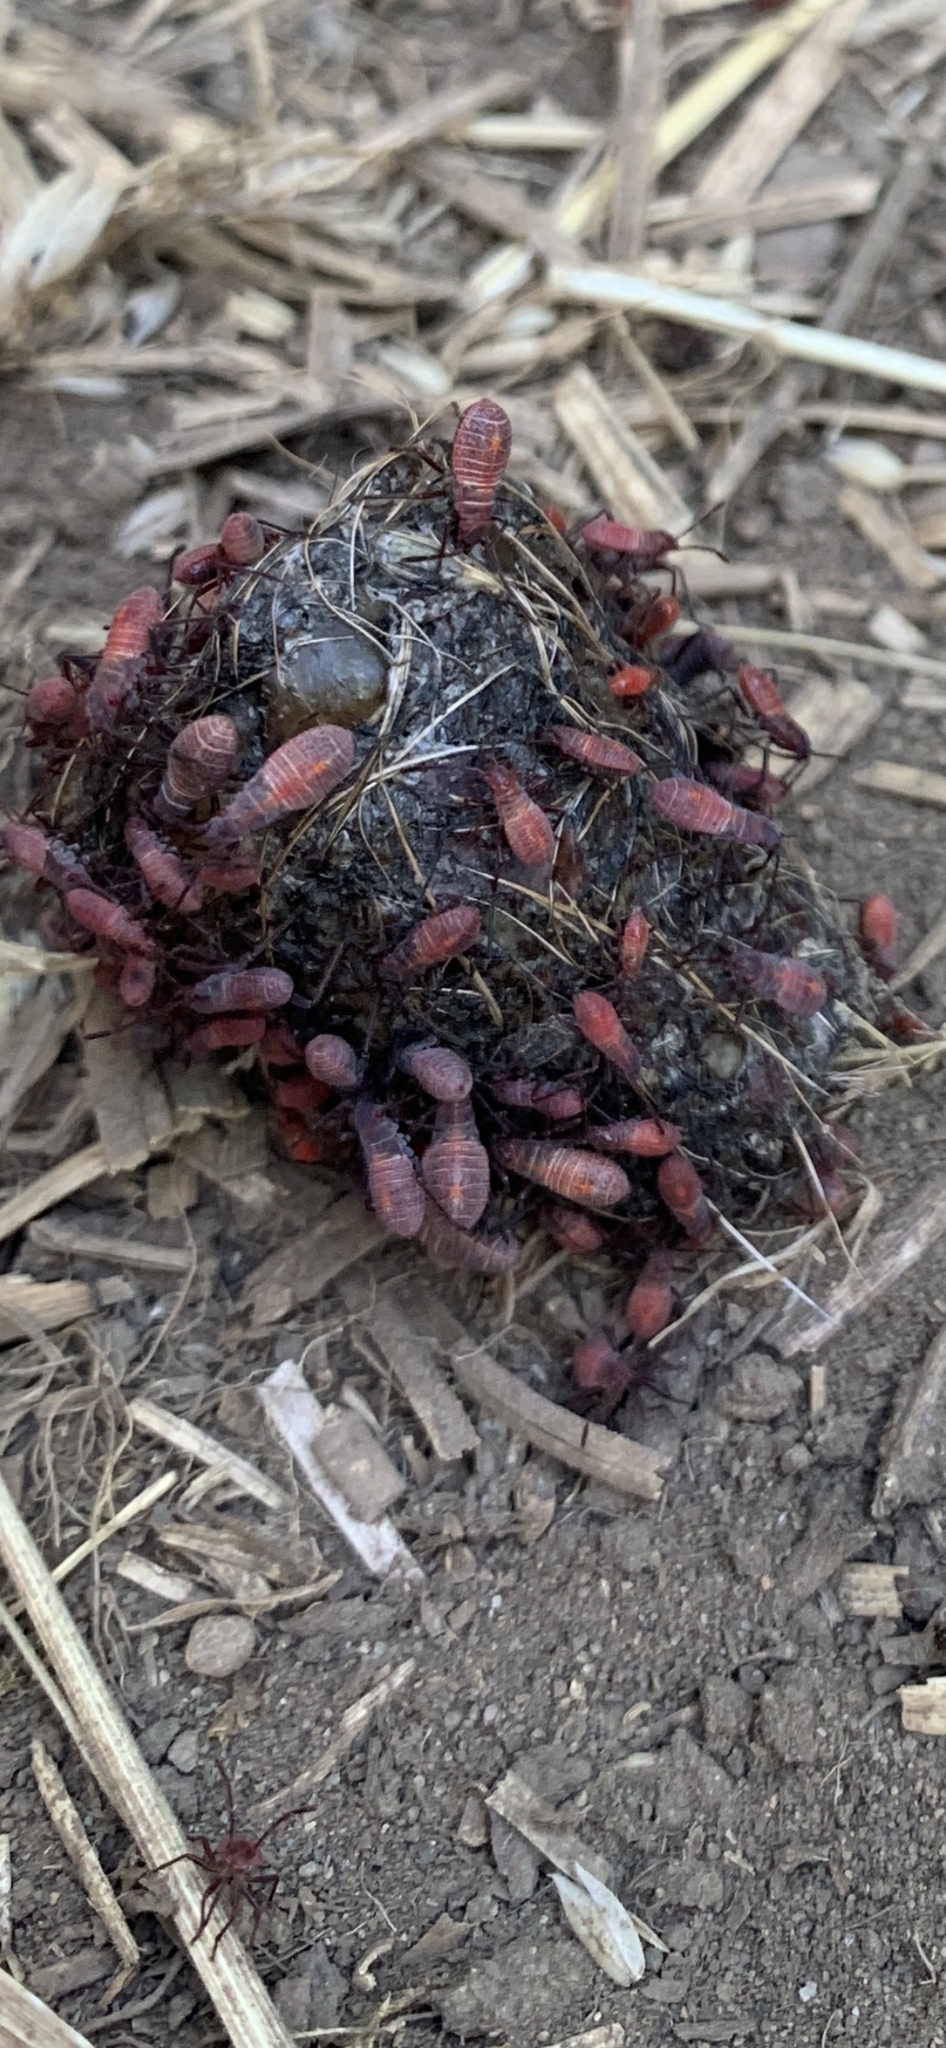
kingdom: Animalia
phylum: Arthropoda
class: Insecta
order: Hemiptera
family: Rhopalidae
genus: Boisea
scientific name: Boisea rubrolineata
